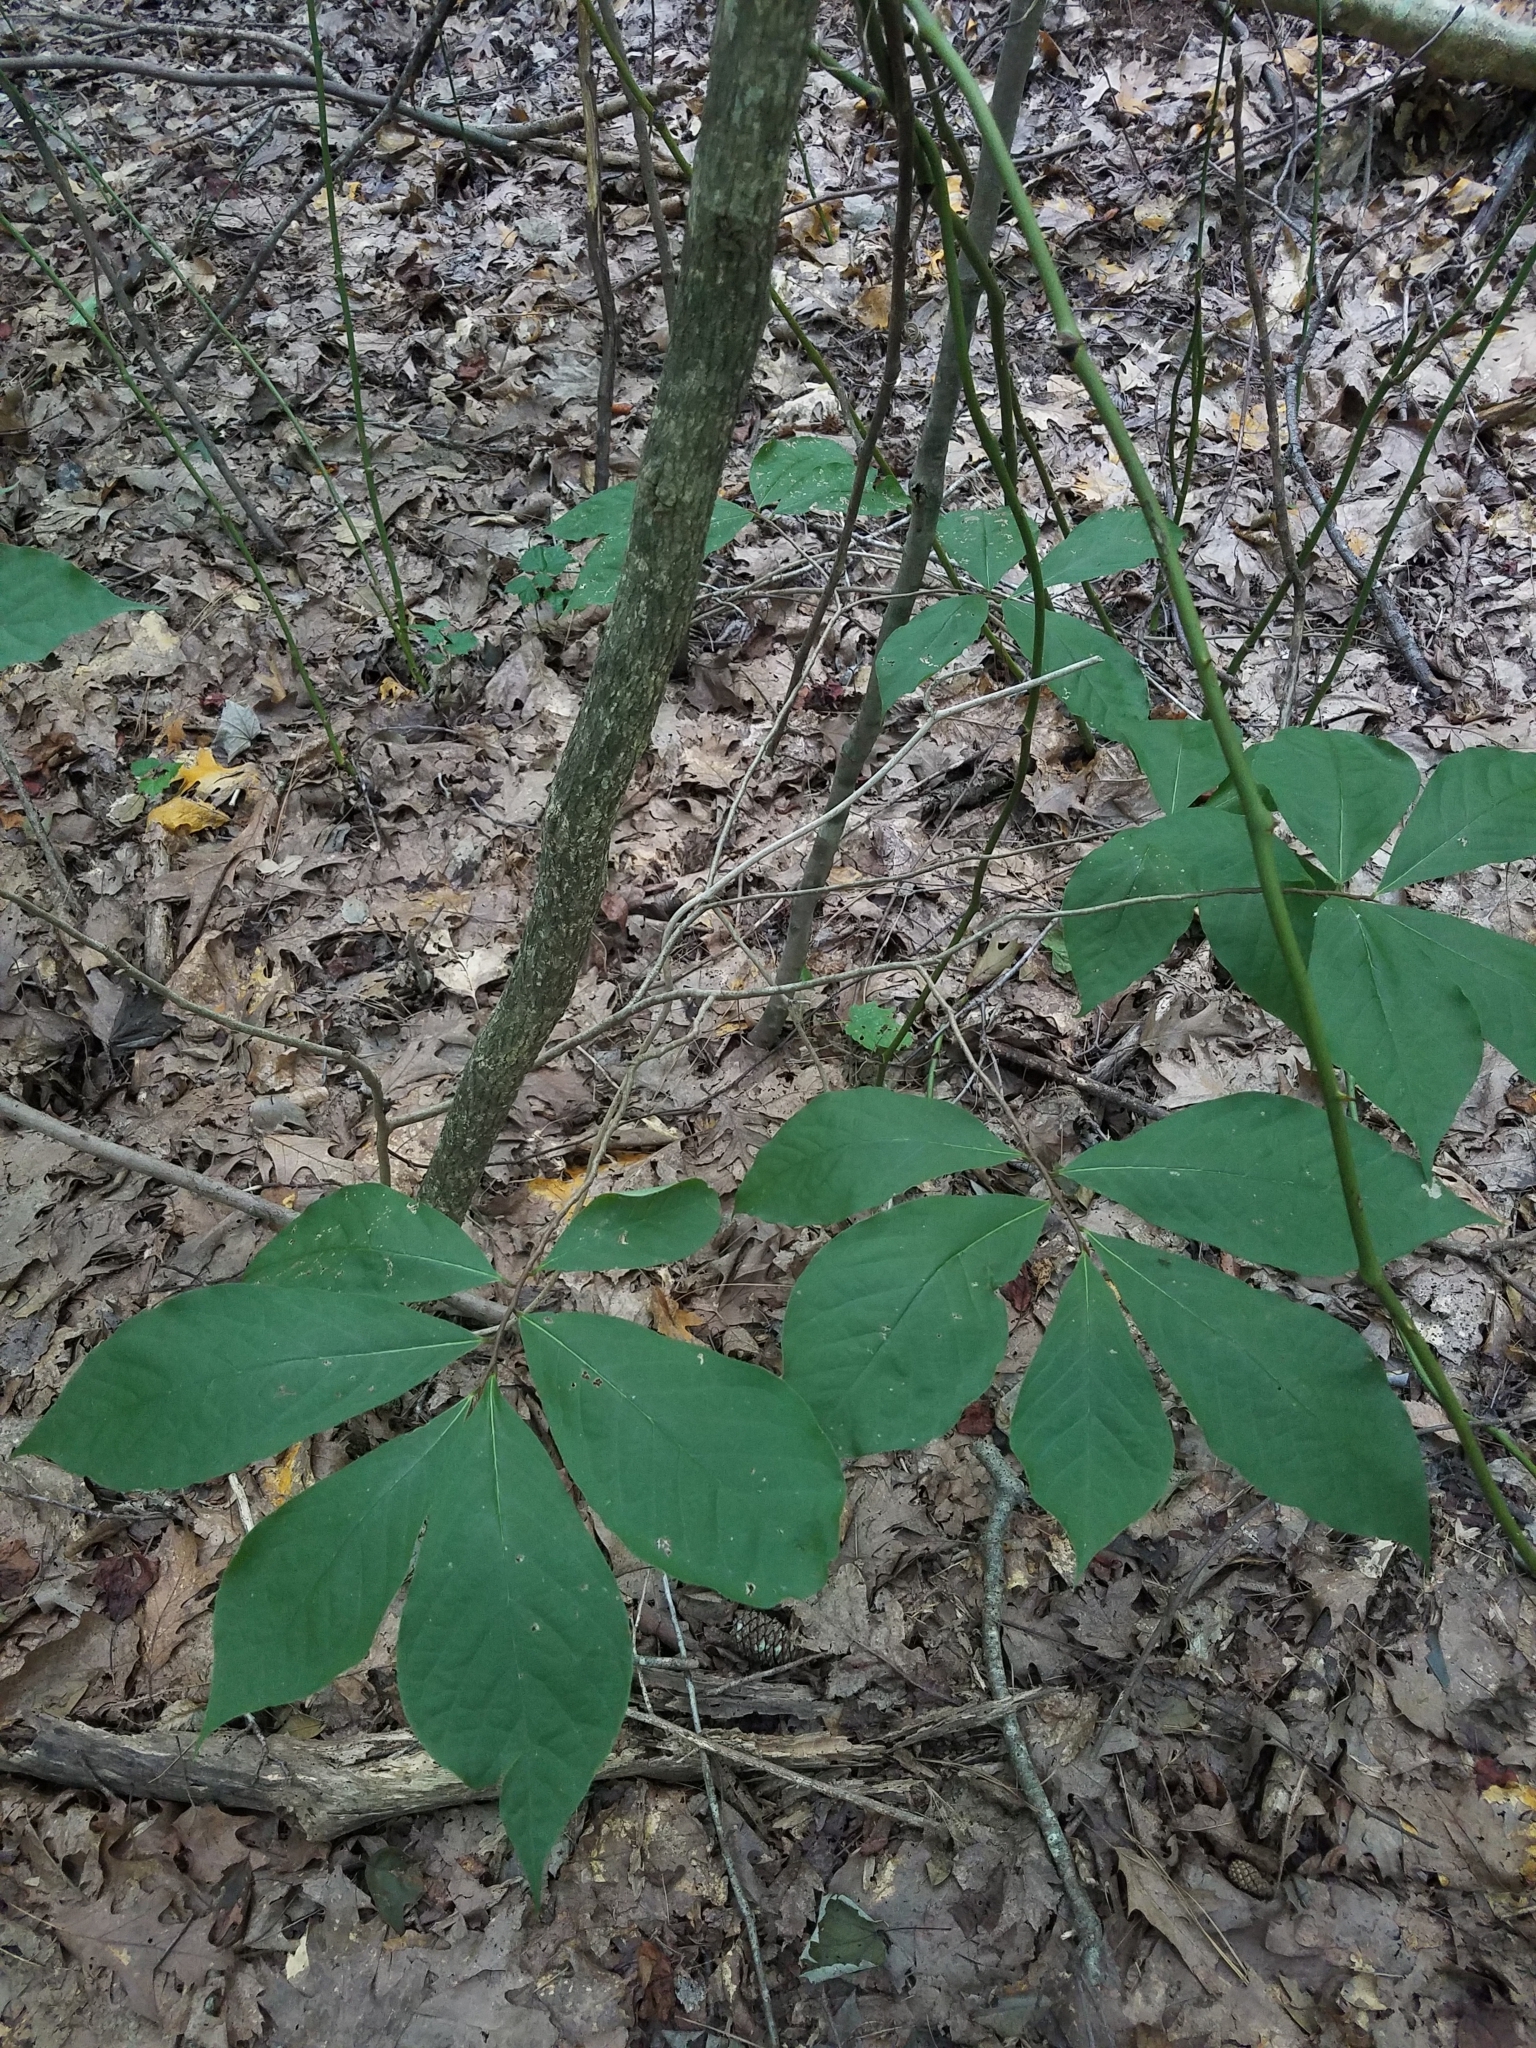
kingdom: Plantae
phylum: Tracheophyta
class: Magnoliopsida
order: Magnoliales
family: Annonaceae
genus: Asimina
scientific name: Asimina parviflora
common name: Dwarf pawpaw
